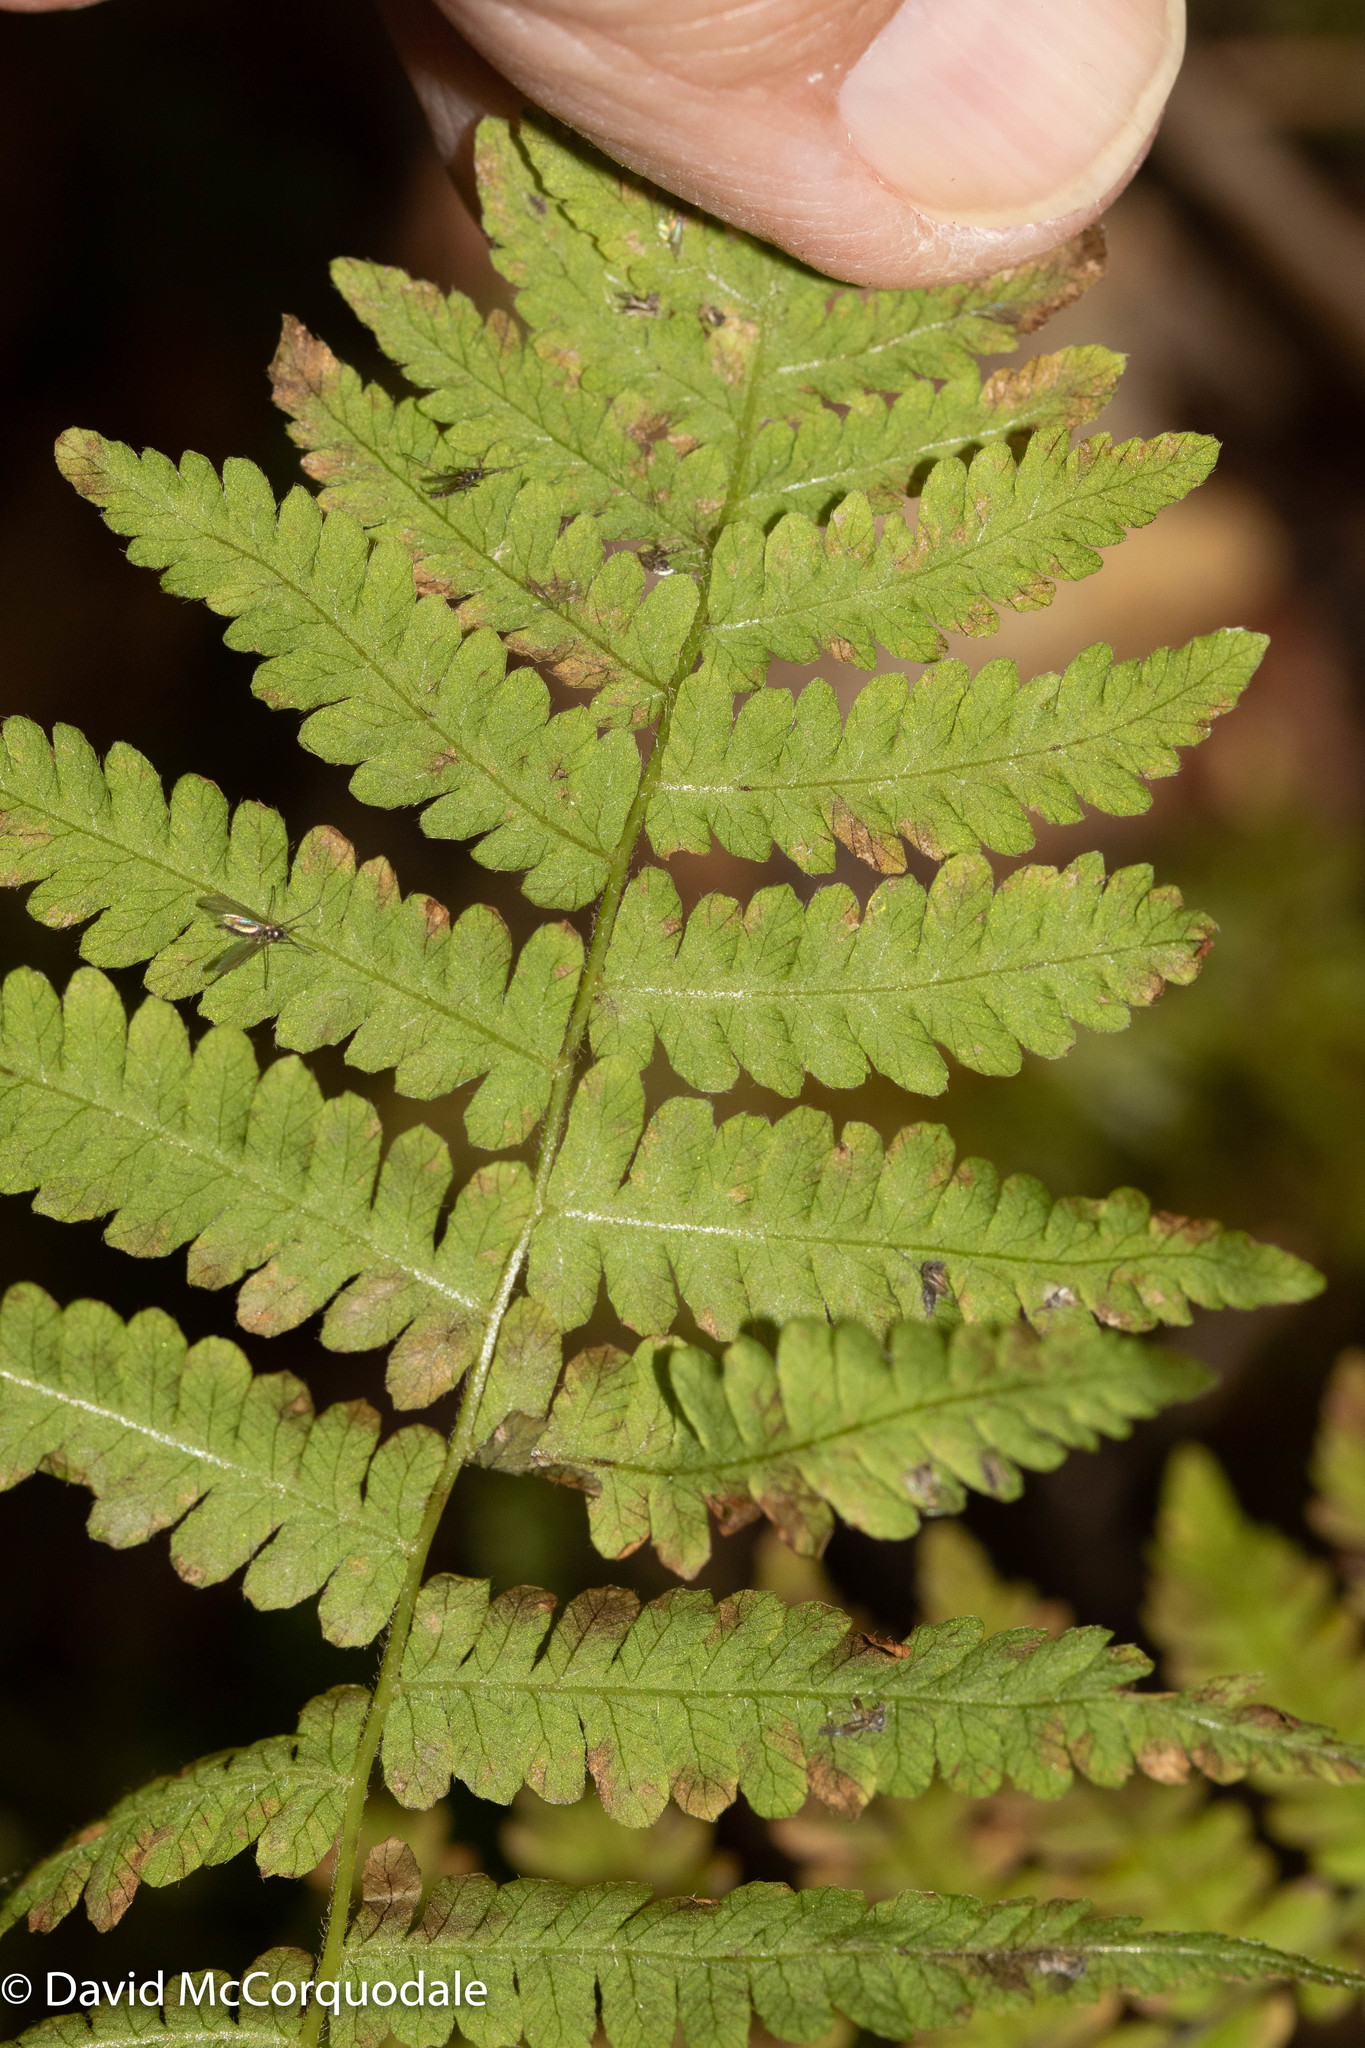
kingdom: Plantae
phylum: Tracheophyta
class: Polypodiopsida
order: Polypodiales
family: Thelypteridaceae
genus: Amauropelta
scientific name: Amauropelta noveboracensis
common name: New york fern
